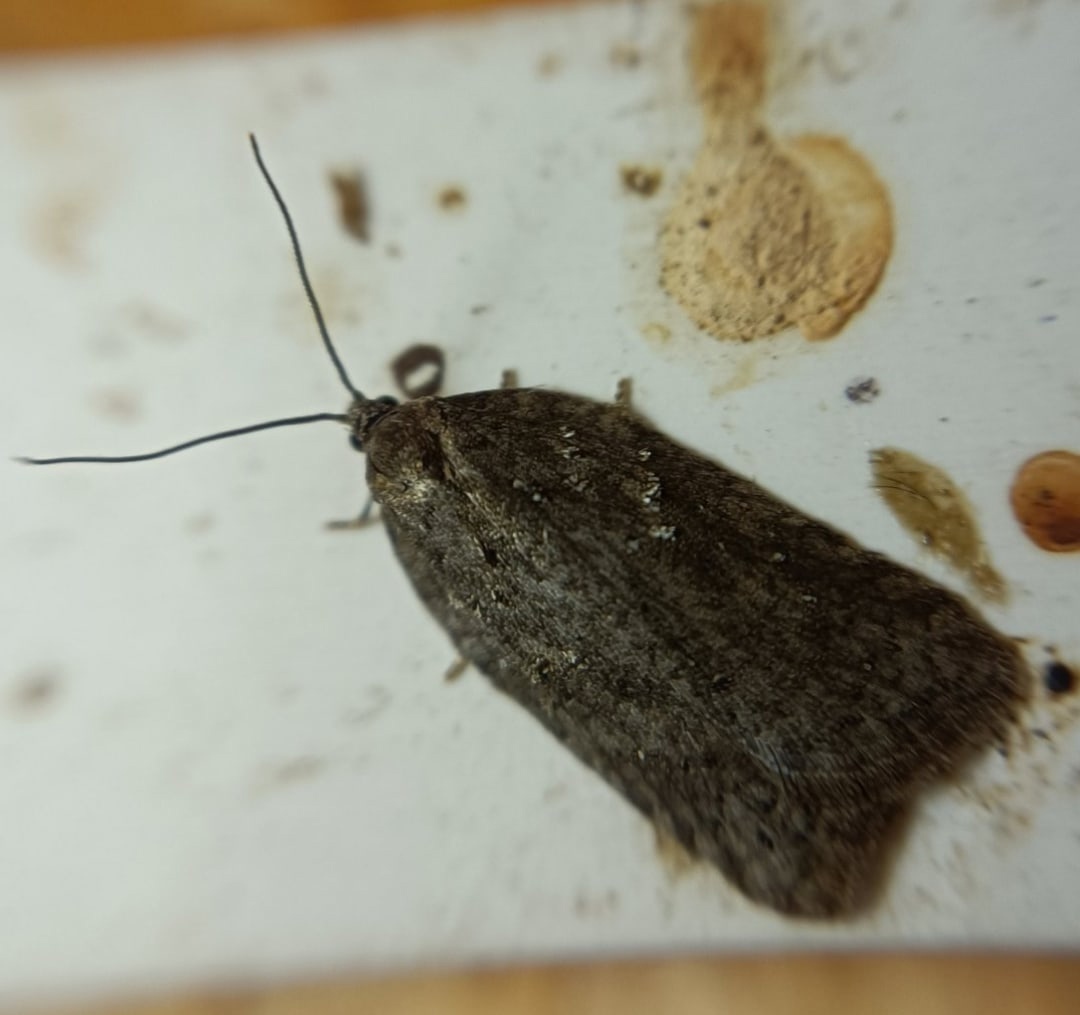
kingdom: Animalia
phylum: Arthropoda
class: Insecta
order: Lepidoptera
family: Tortricidae
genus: Acleris
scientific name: Acleris maccana
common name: Marbled button
